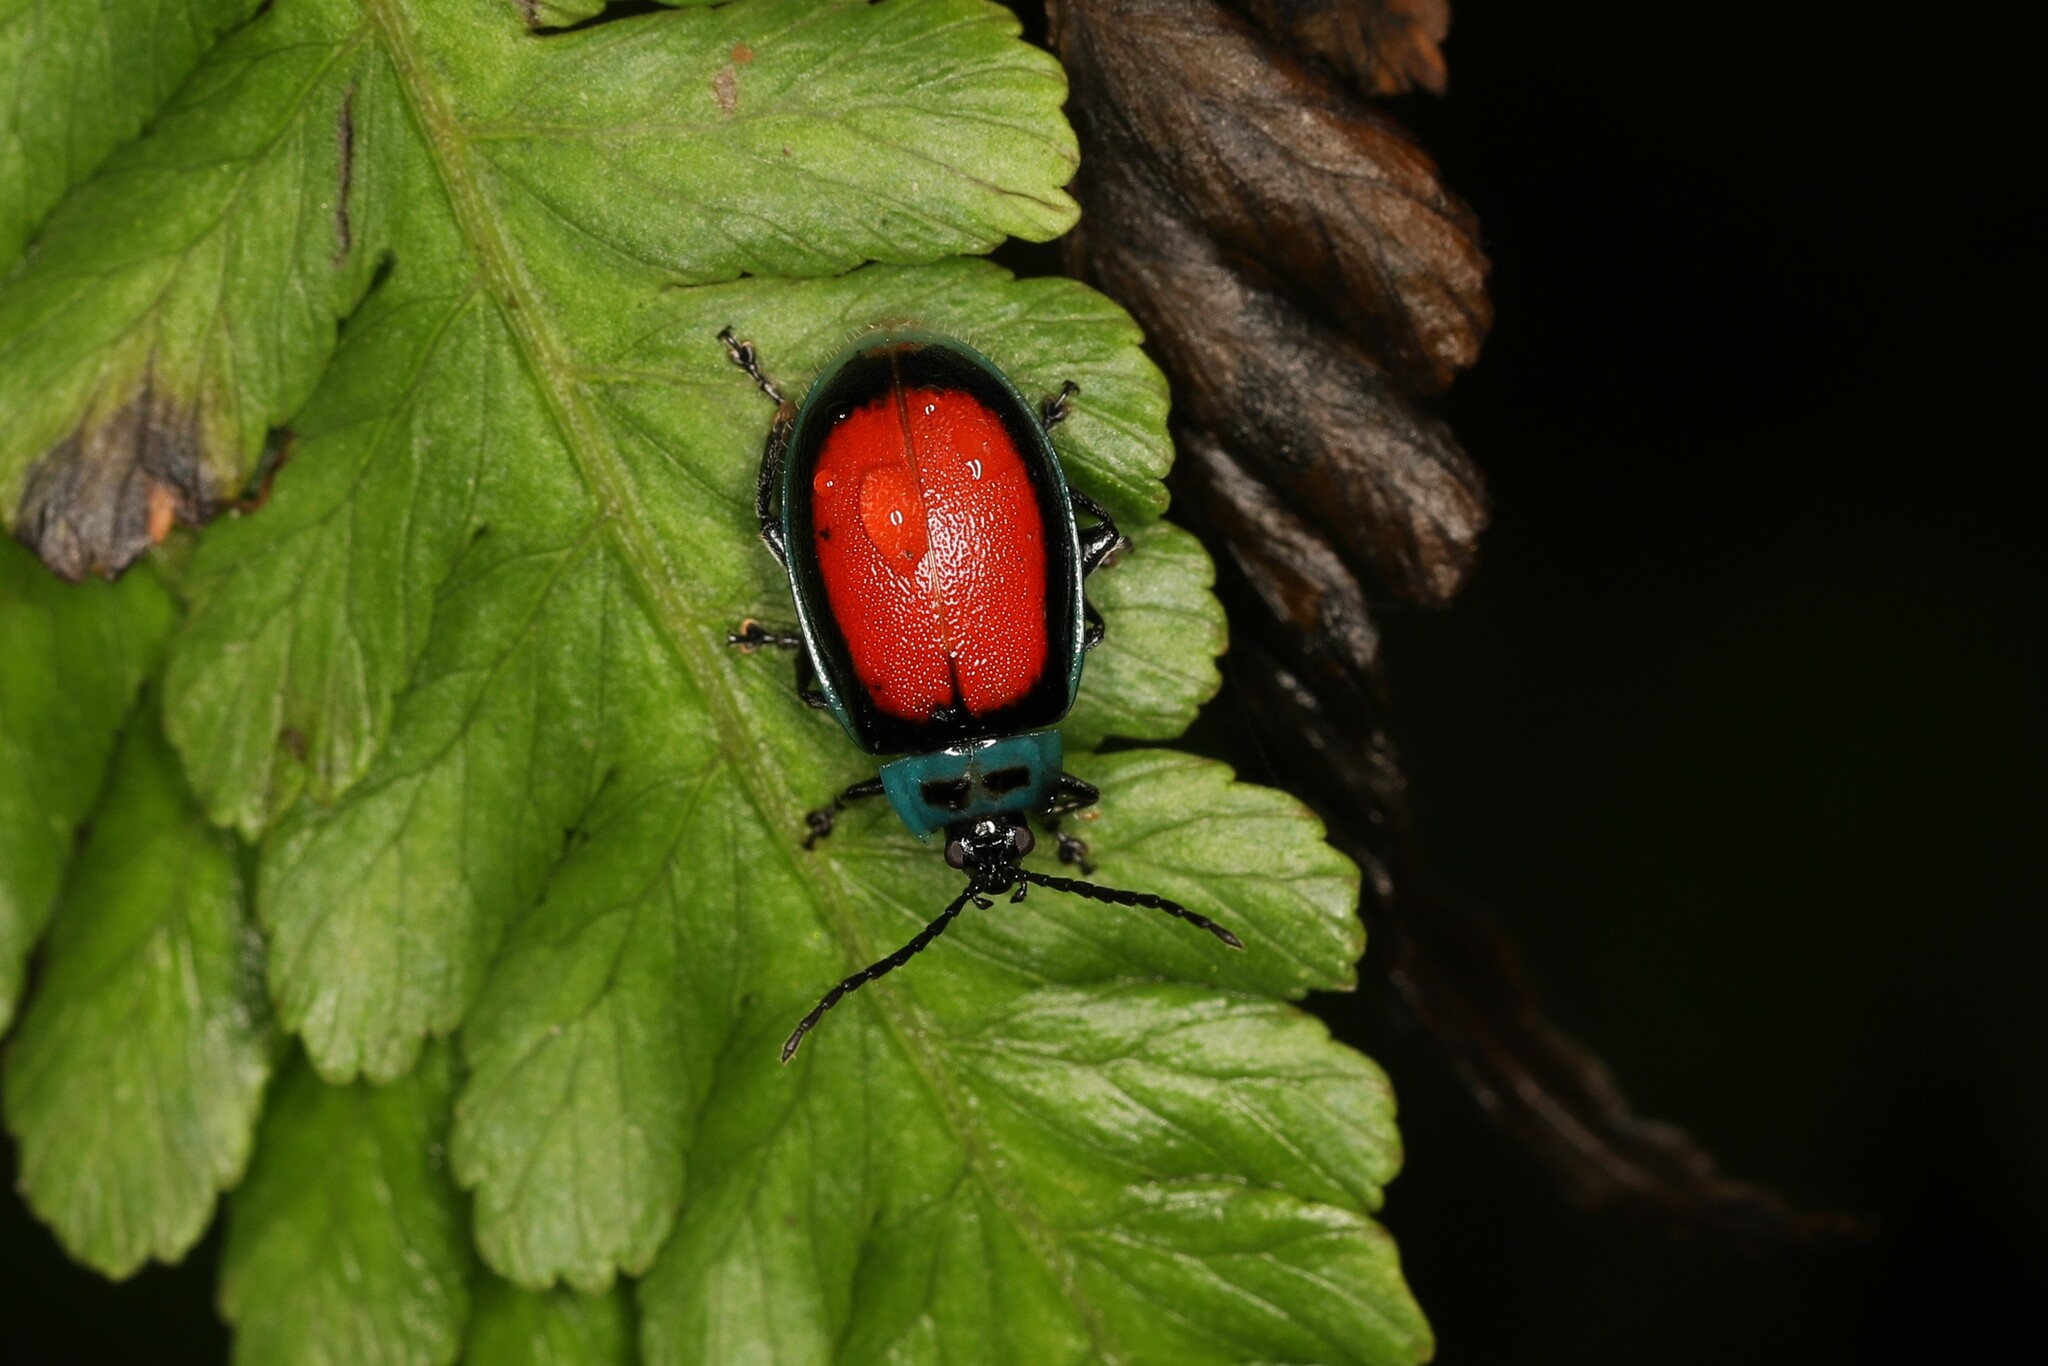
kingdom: Animalia
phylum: Arthropoda
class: Insecta
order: Coleoptera
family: Chrysomelidae
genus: Aspicela
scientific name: Aspicela
